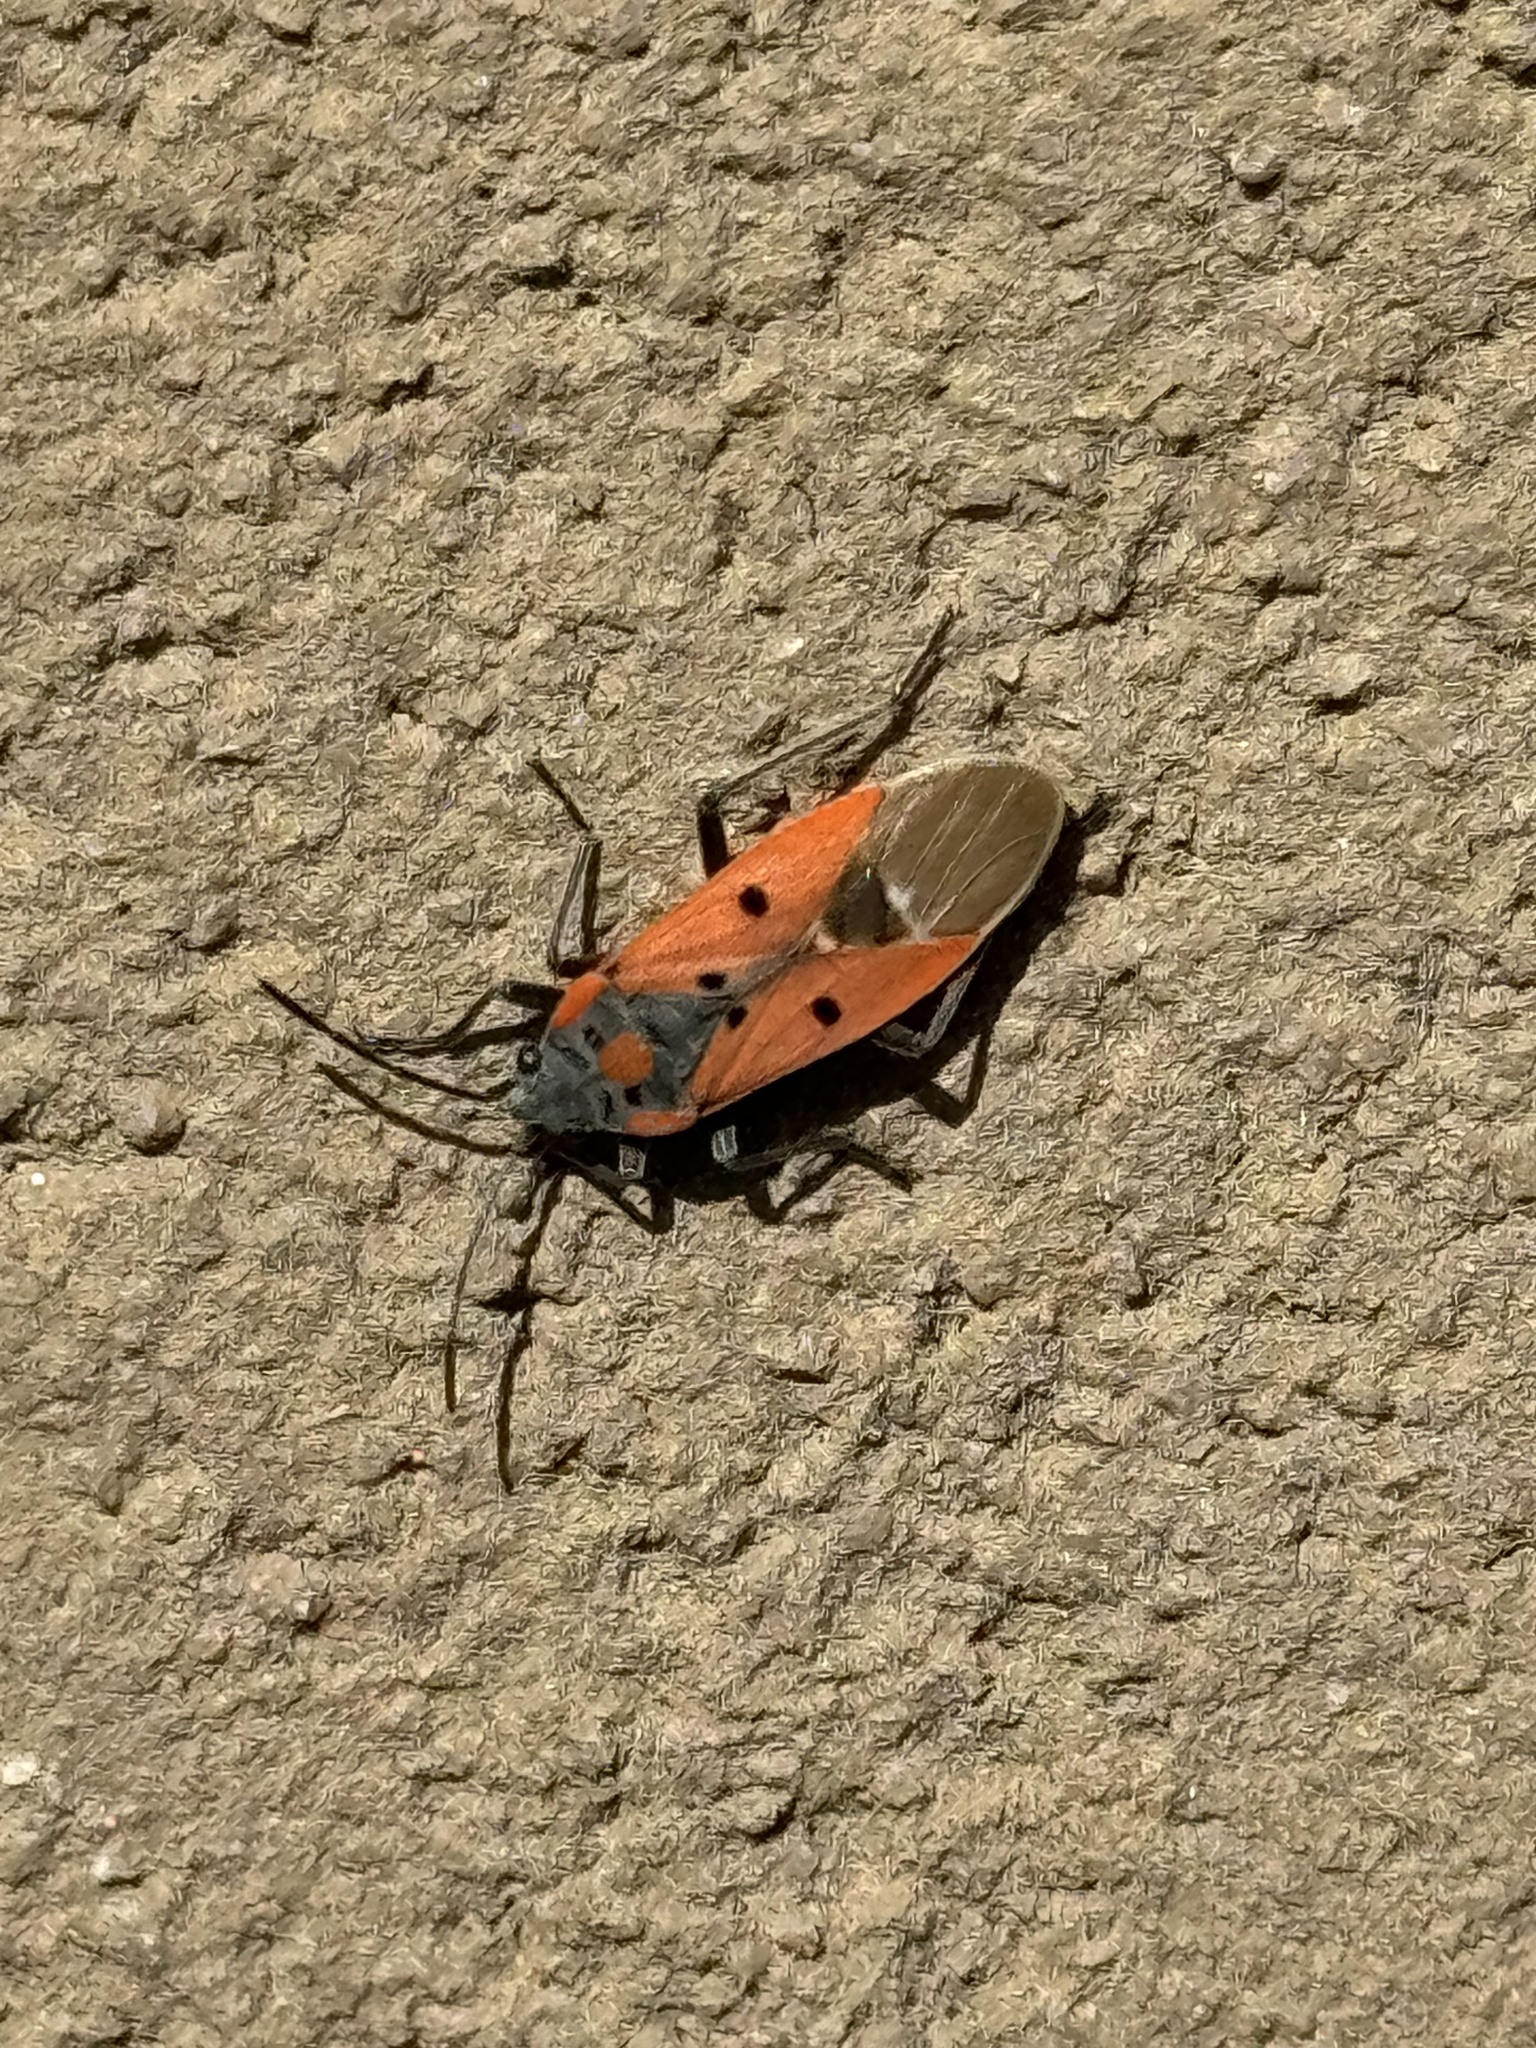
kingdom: Animalia
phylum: Arthropoda
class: Insecta
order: Hemiptera
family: Lygaeidae
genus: Lygaeus
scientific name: Lygaeus creticus
